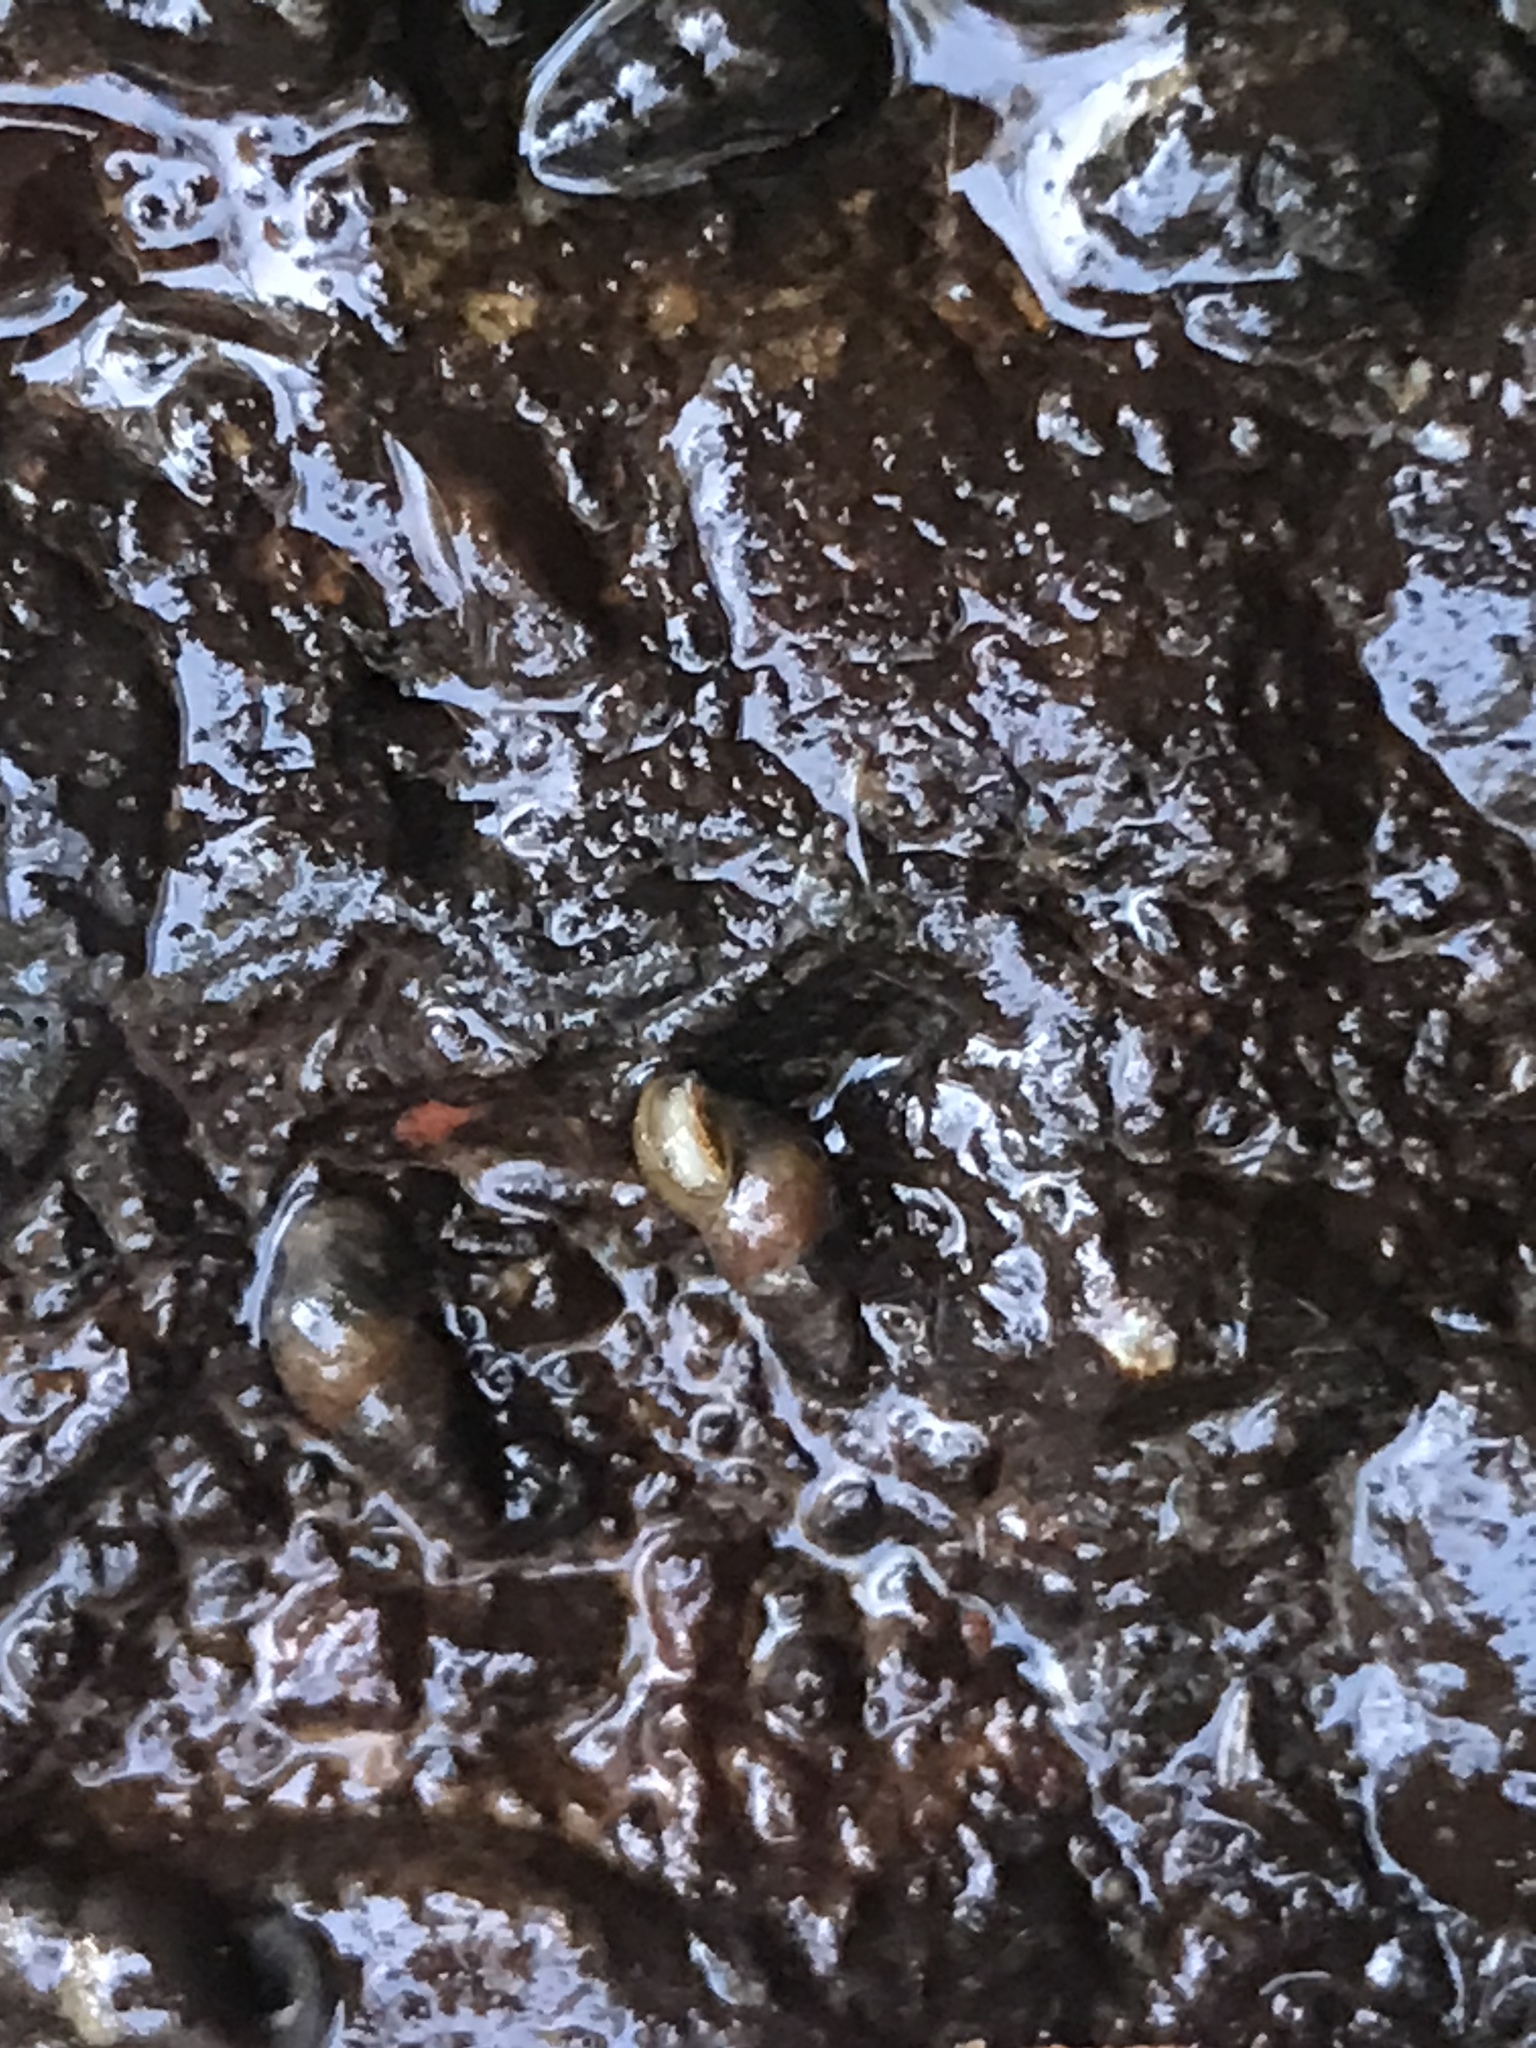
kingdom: Animalia
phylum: Mollusca
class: Gastropoda
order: Littorinimorpha
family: Tateidae
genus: Potamopyrgus
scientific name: Potamopyrgus antipodarum
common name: Jenkins' spire snail
